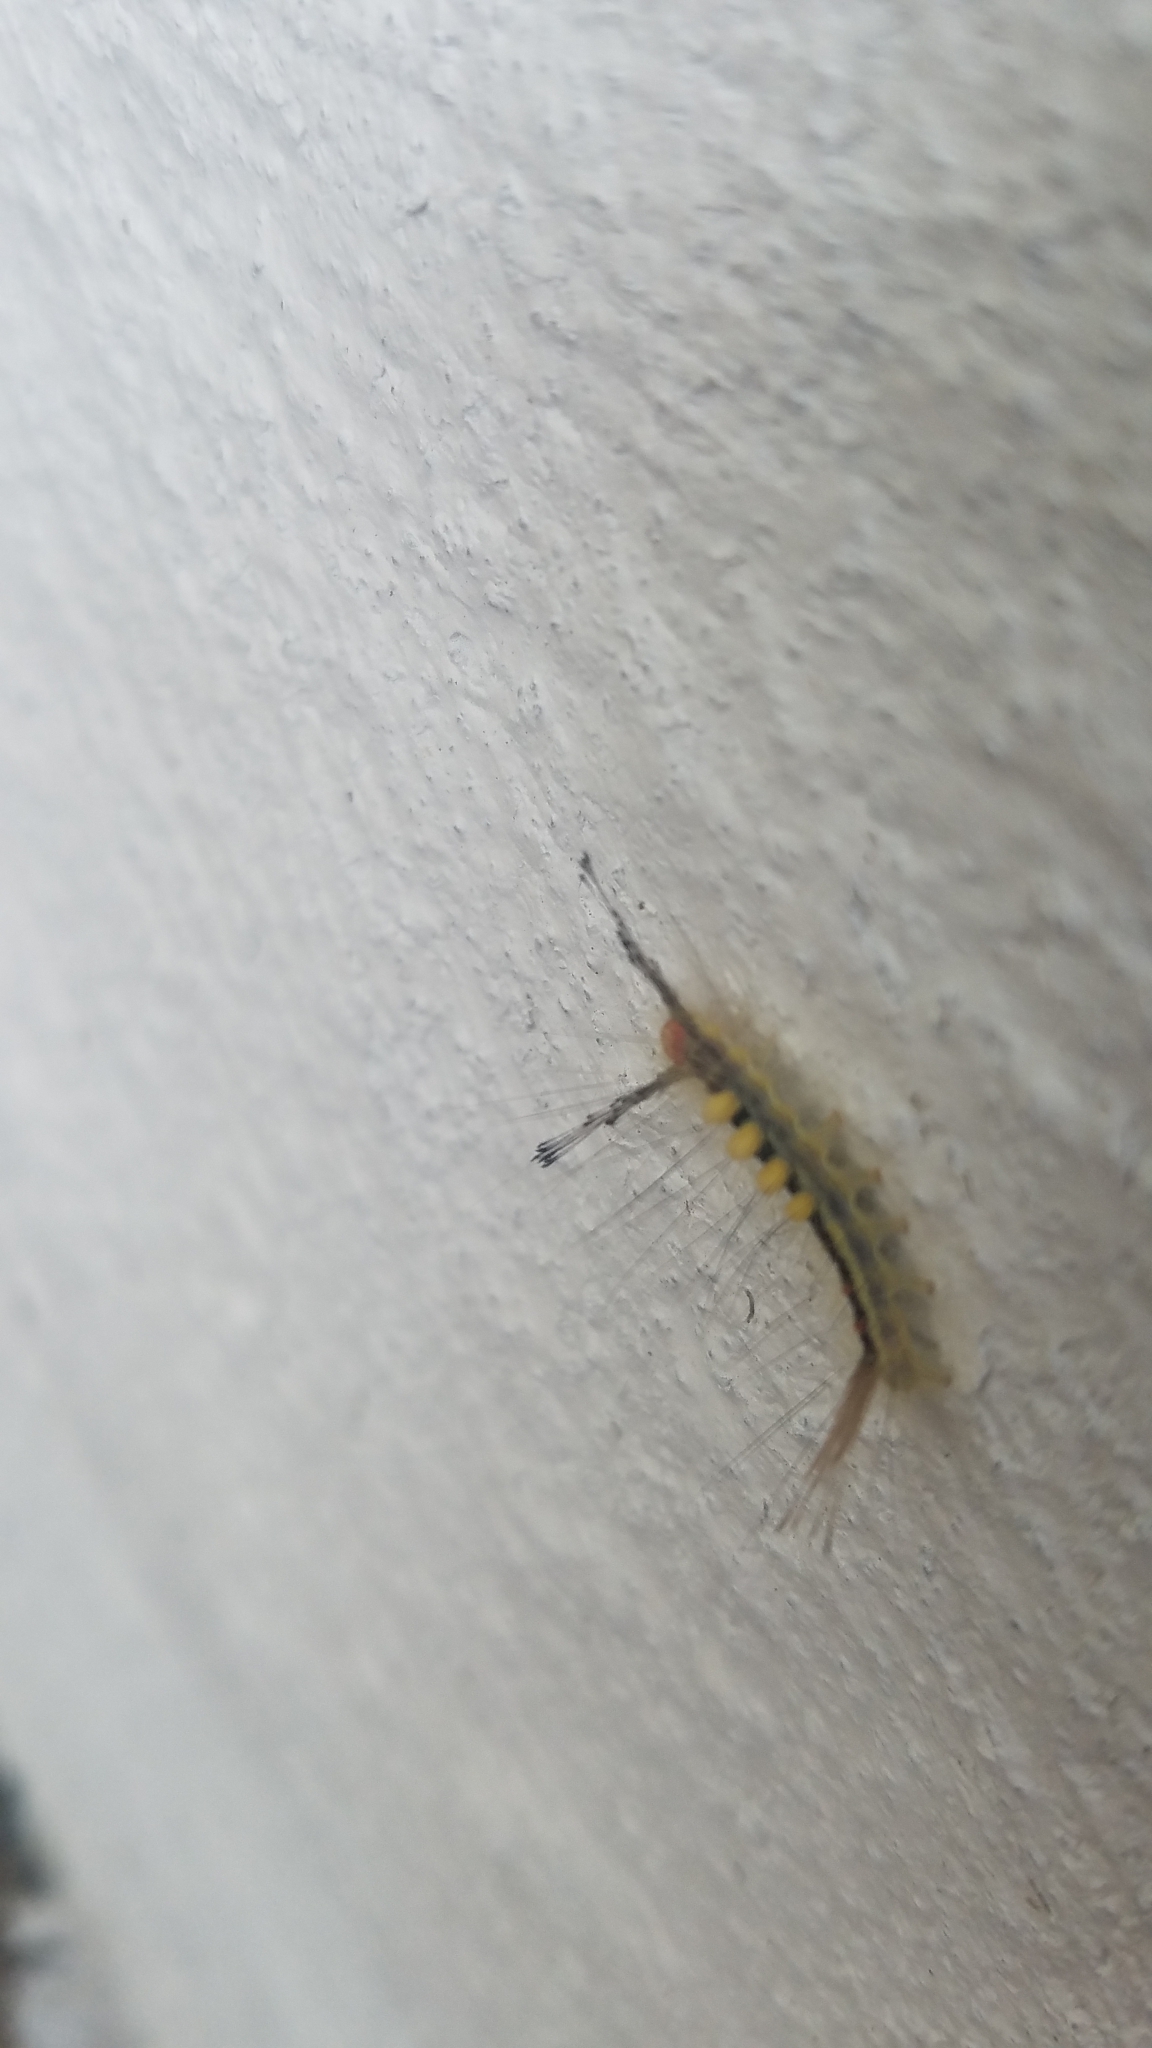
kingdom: Animalia
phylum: Arthropoda
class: Insecta
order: Lepidoptera
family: Erebidae
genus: Orgyia
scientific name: Orgyia leucostigma
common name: White-marked tussock moth
